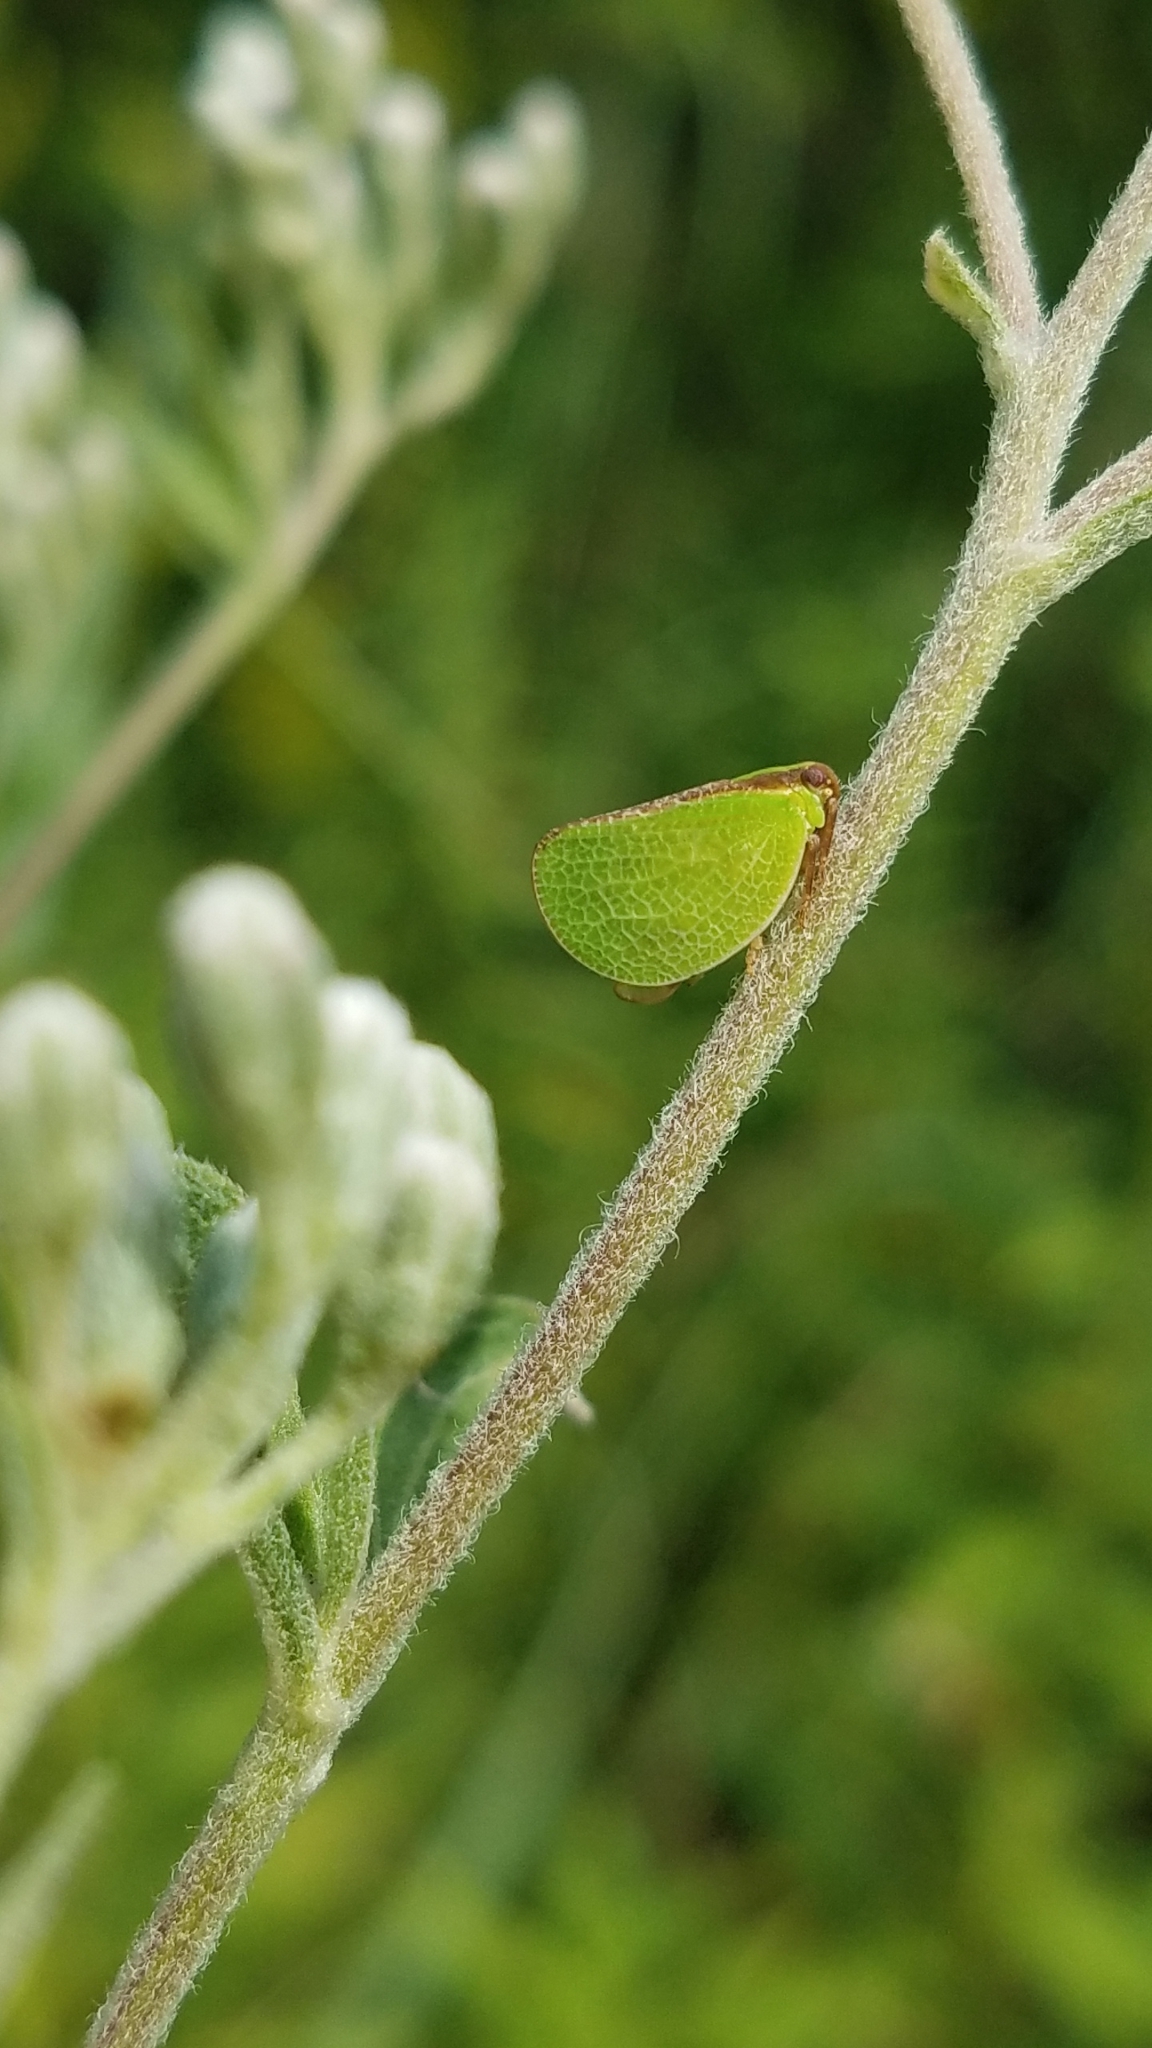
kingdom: Animalia
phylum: Arthropoda
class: Insecta
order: Hemiptera
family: Acanaloniidae
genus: Acanalonia
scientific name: Acanalonia bivittata
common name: Two-striped planthopper
